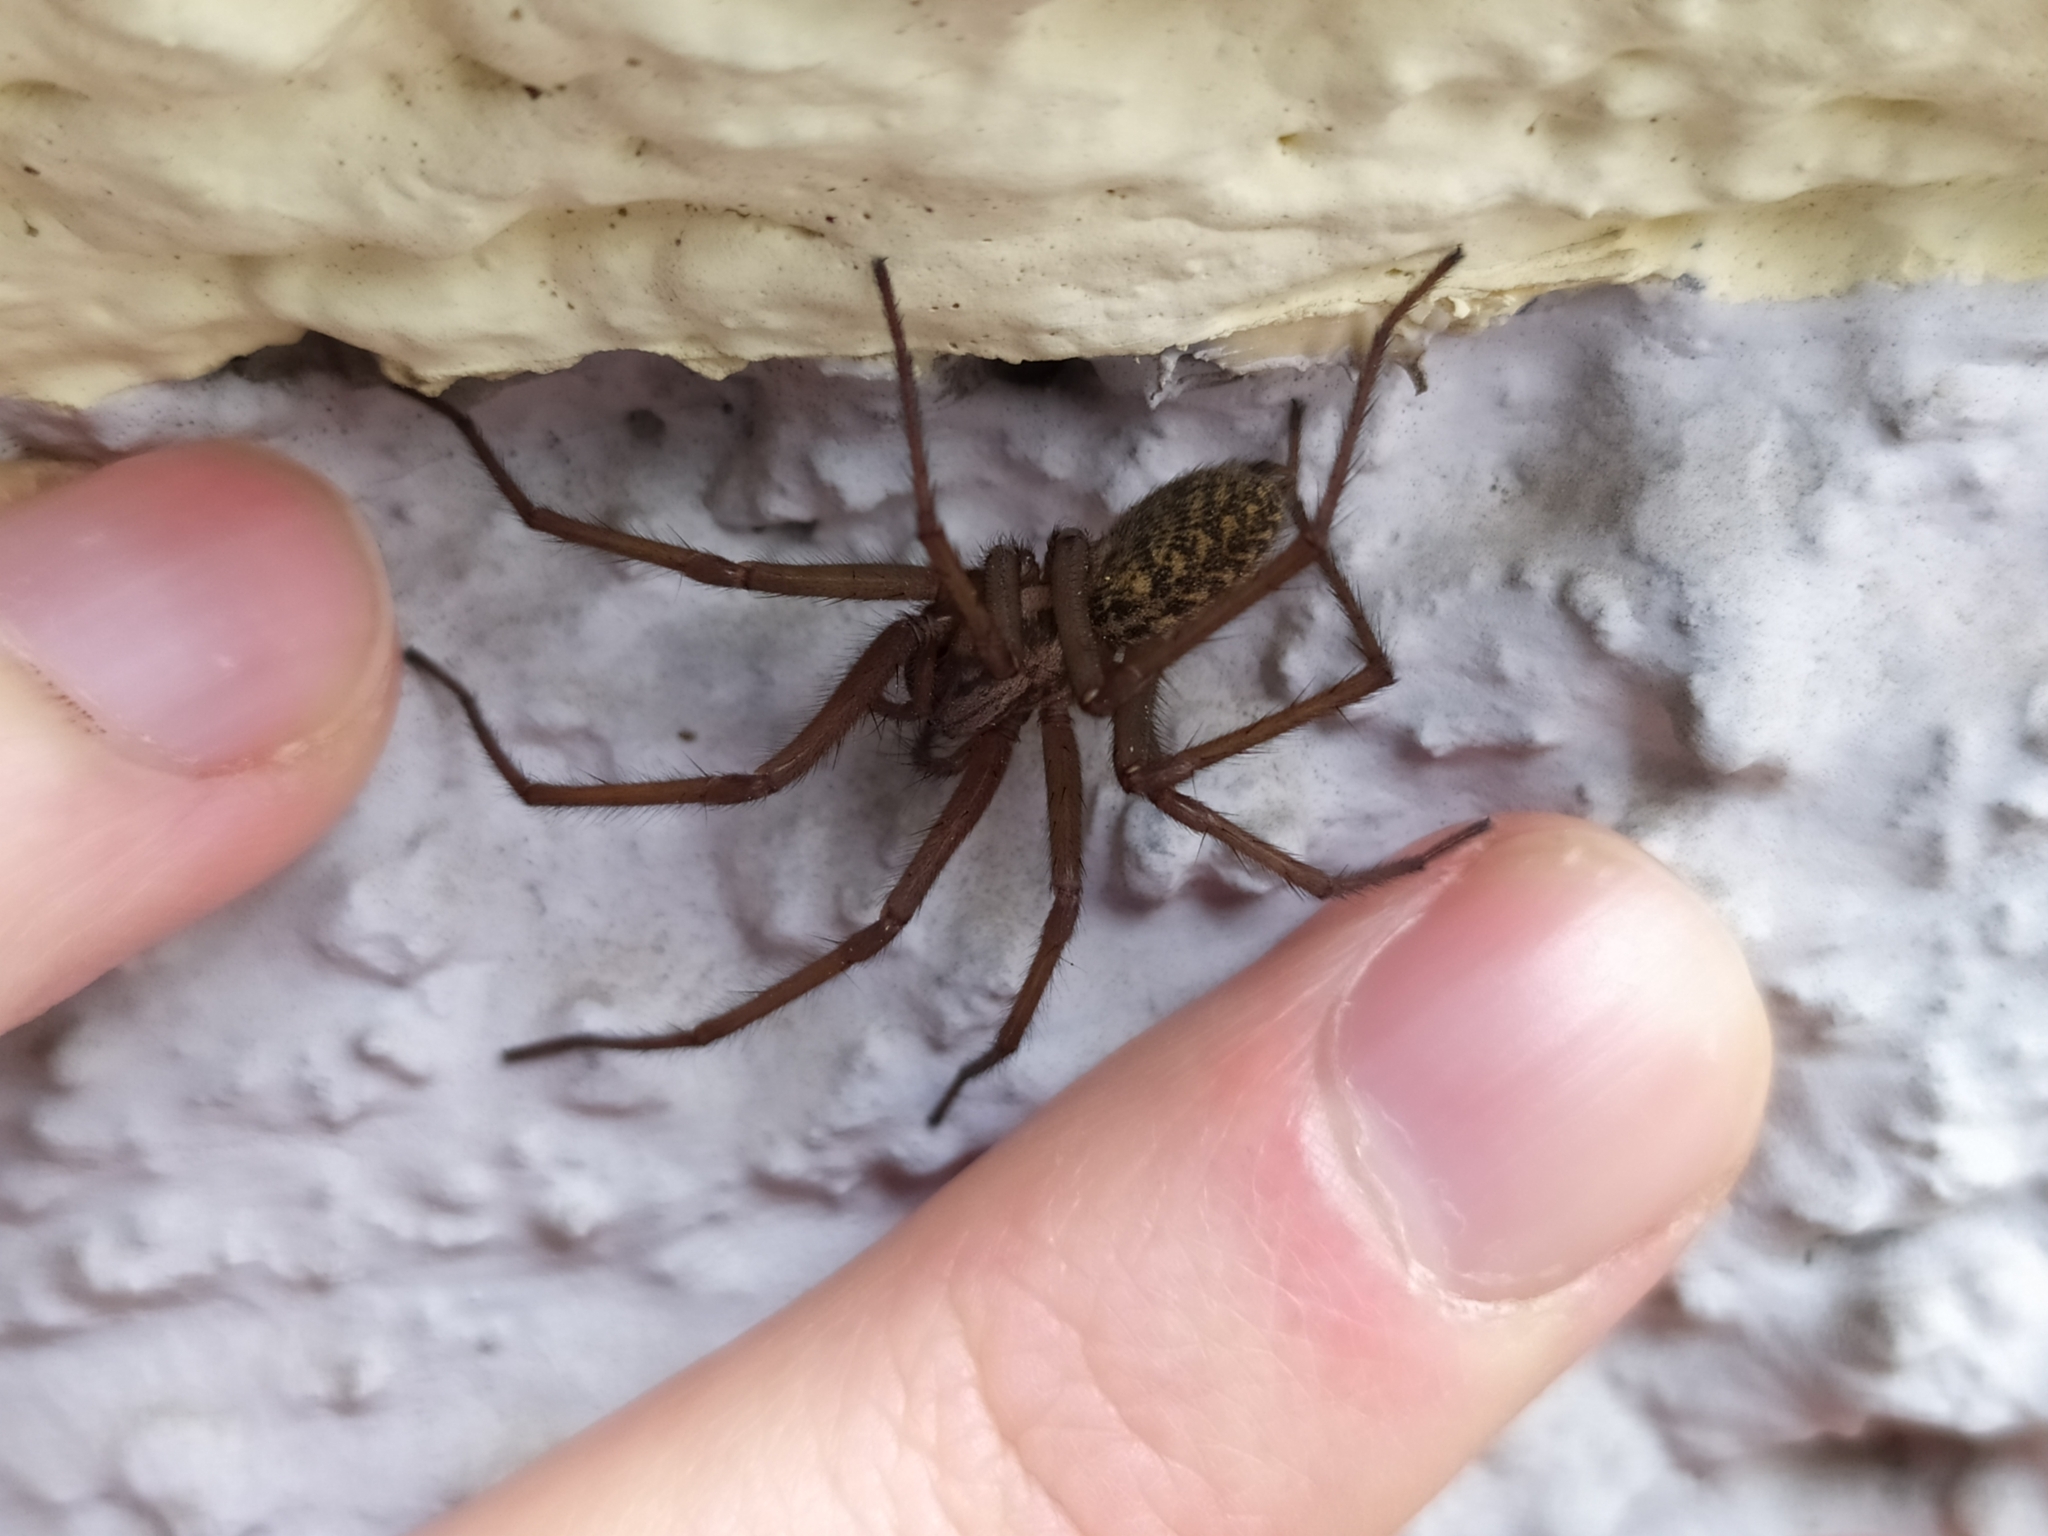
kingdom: Animalia
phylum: Arthropoda
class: Arachnida
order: Araneae
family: Agelenidae
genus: Eratigena
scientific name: Eratigena atrica
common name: Giant house spider
